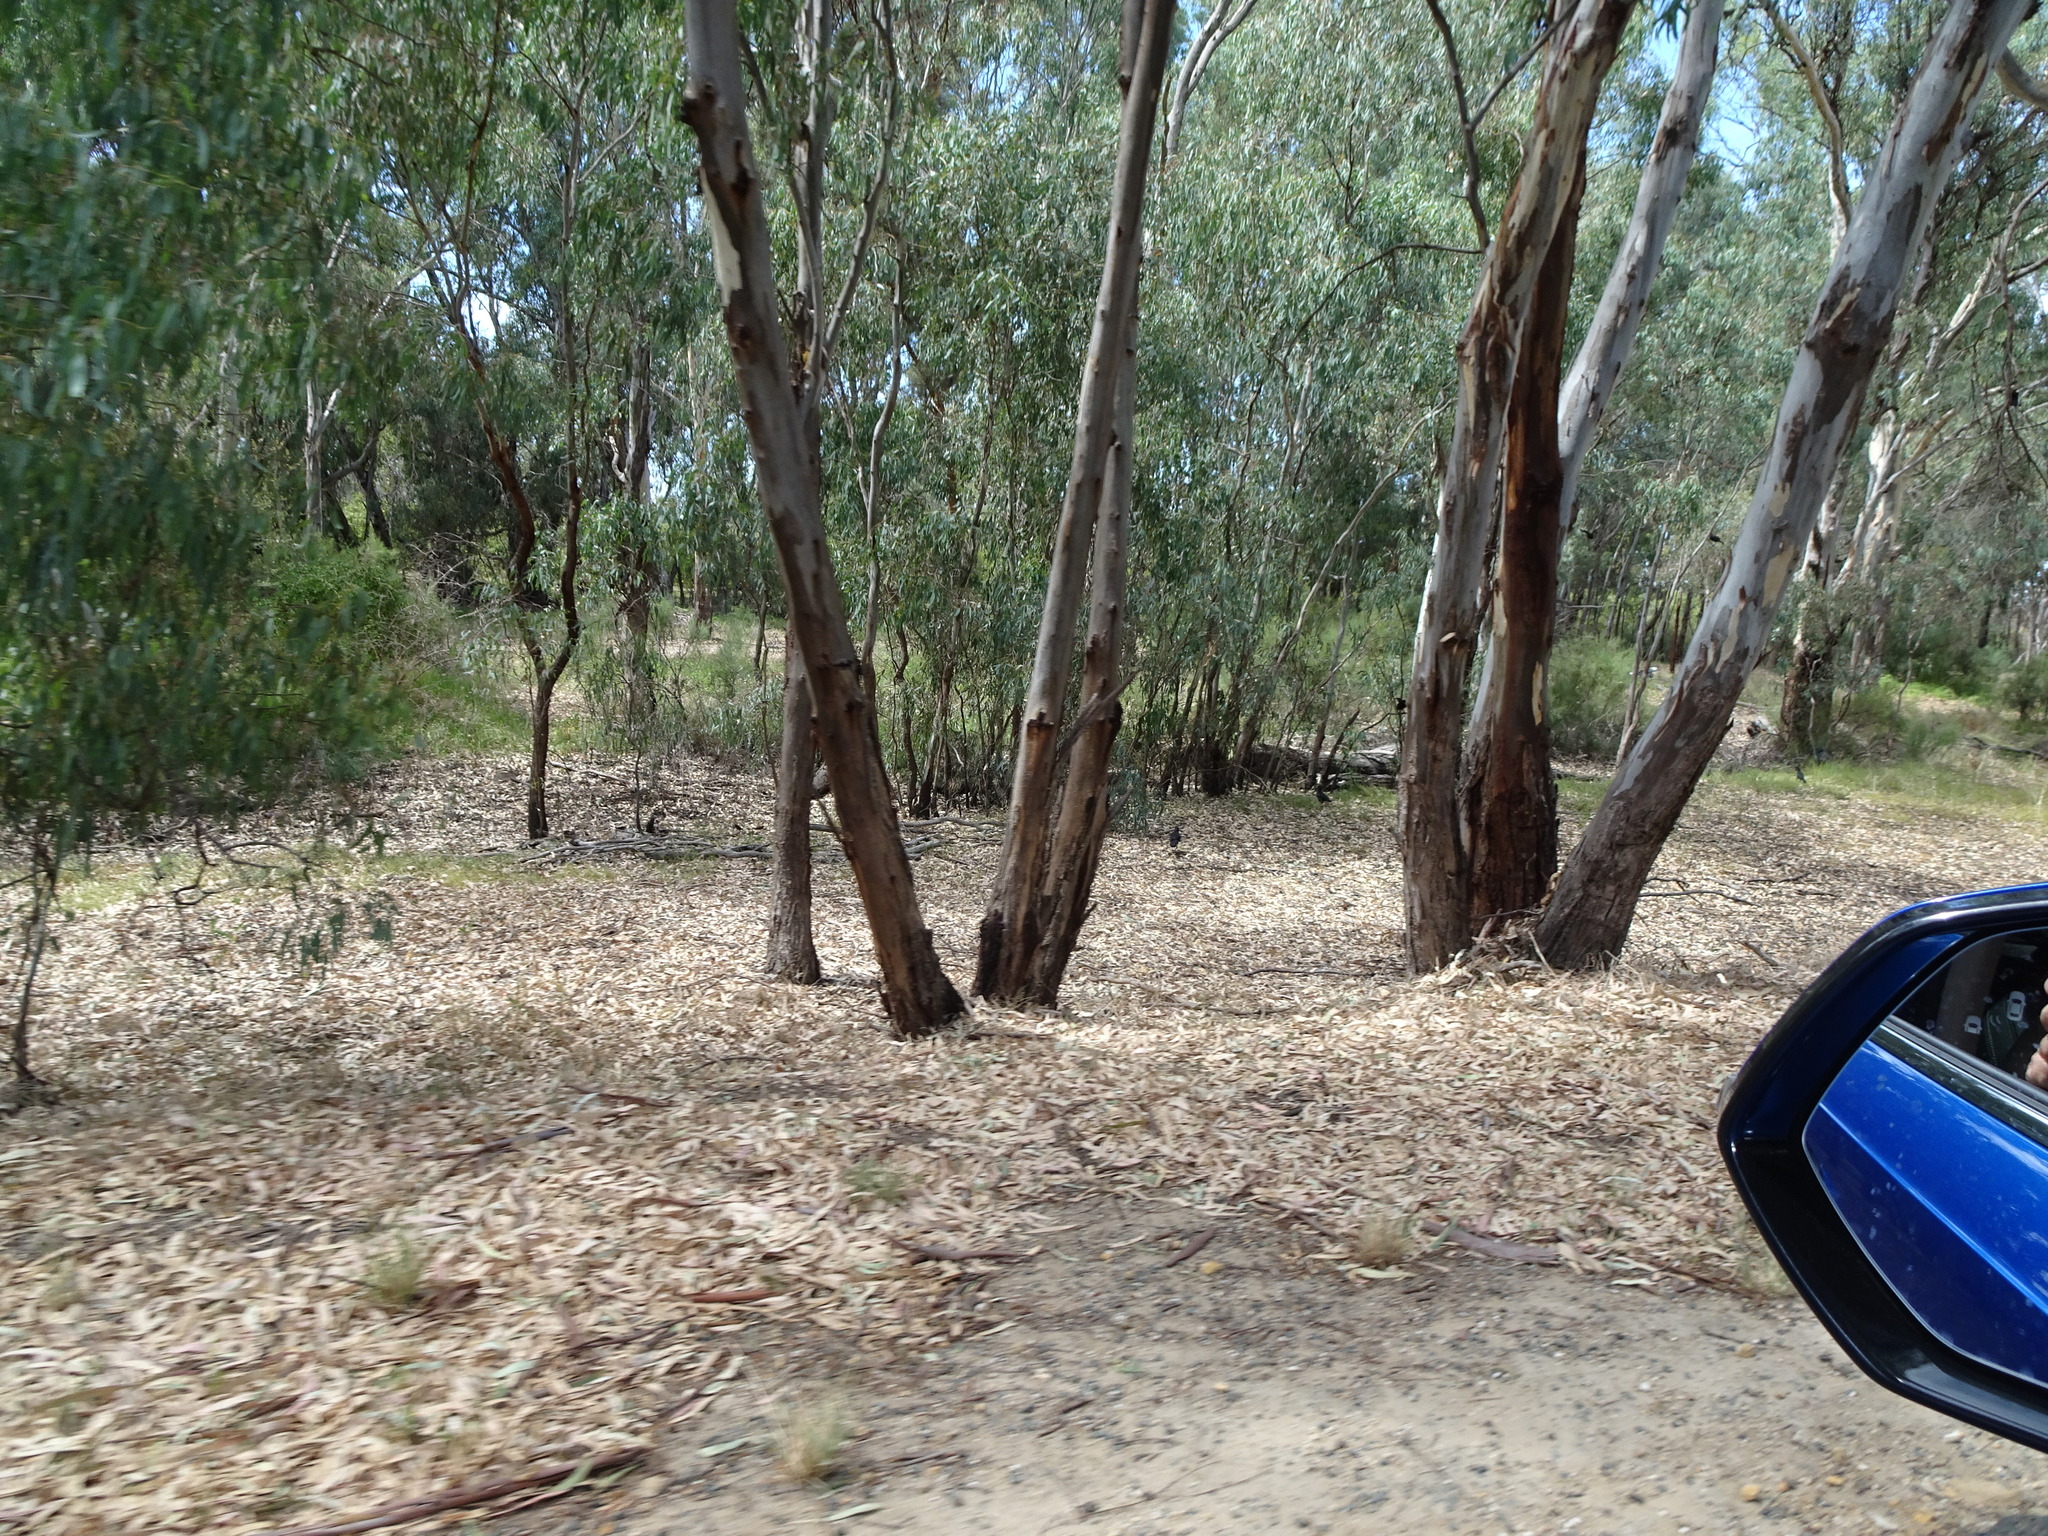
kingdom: Animalia
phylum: Chordata
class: Aves
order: Passeriformes
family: Corcoracidae
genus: Corcorax
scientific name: Corcorax melanoramphos
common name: White-winged chough
